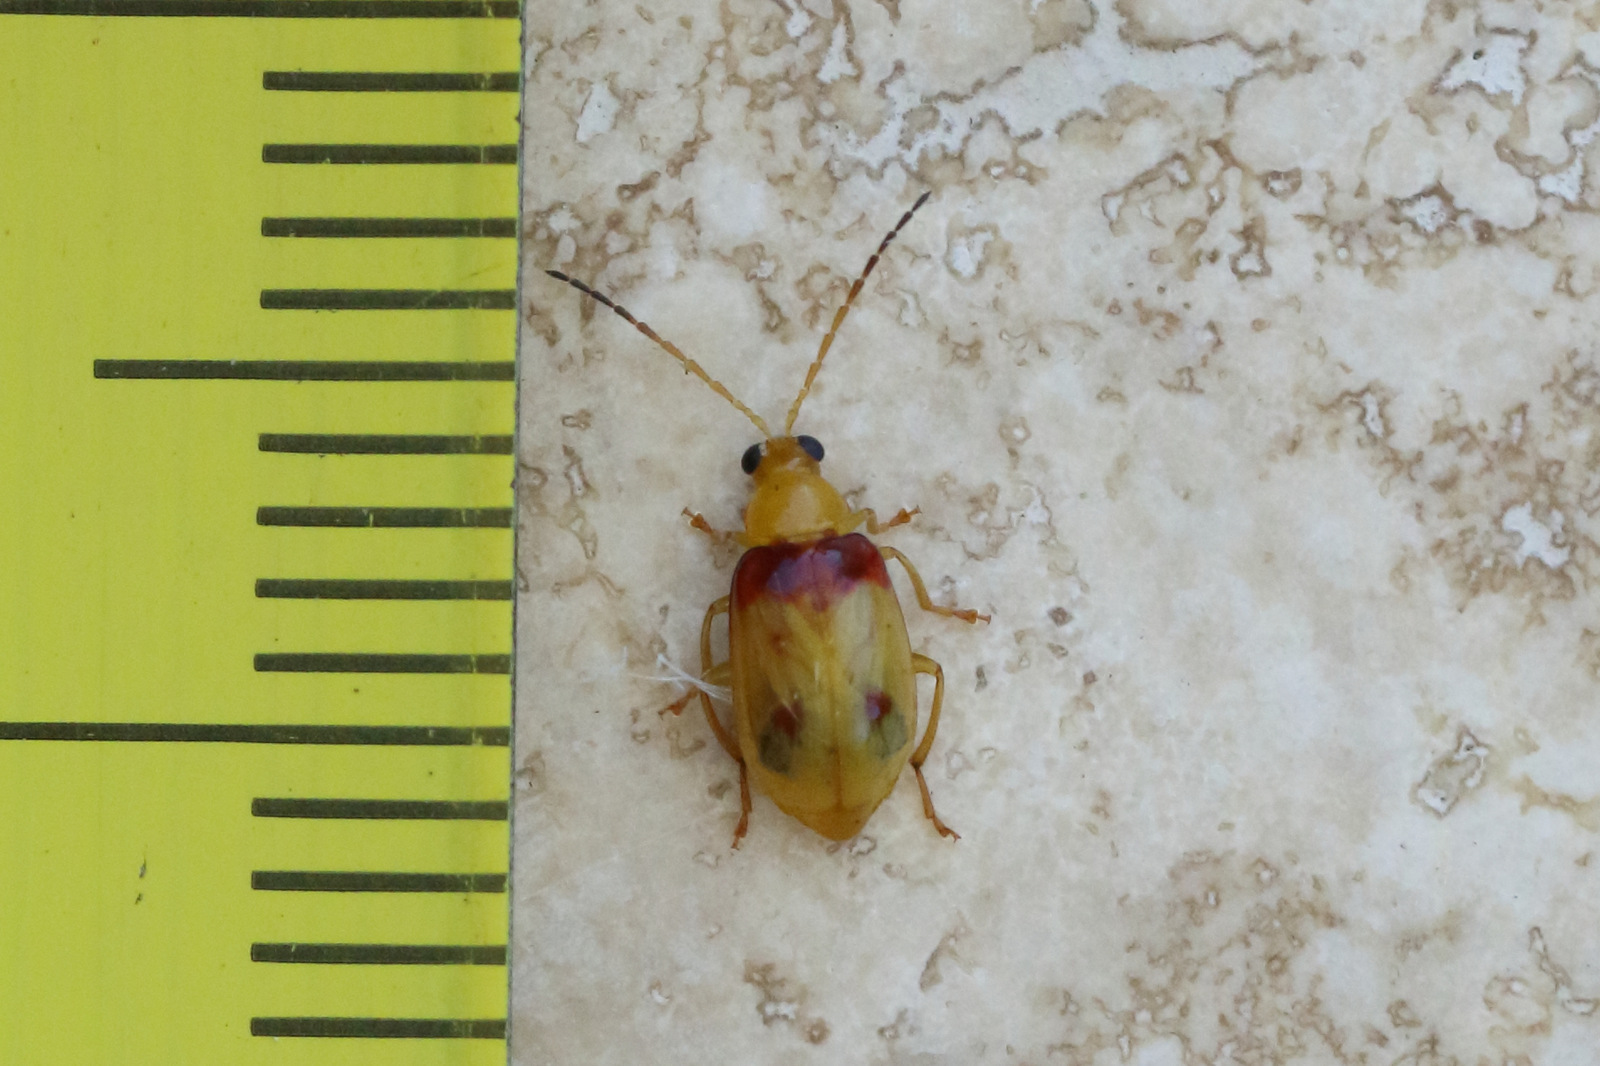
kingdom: Animalia
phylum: Arthropoda
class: Insecta
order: Coleoptera
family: Chrysomelidae
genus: Monolepta
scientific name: Monolepta
